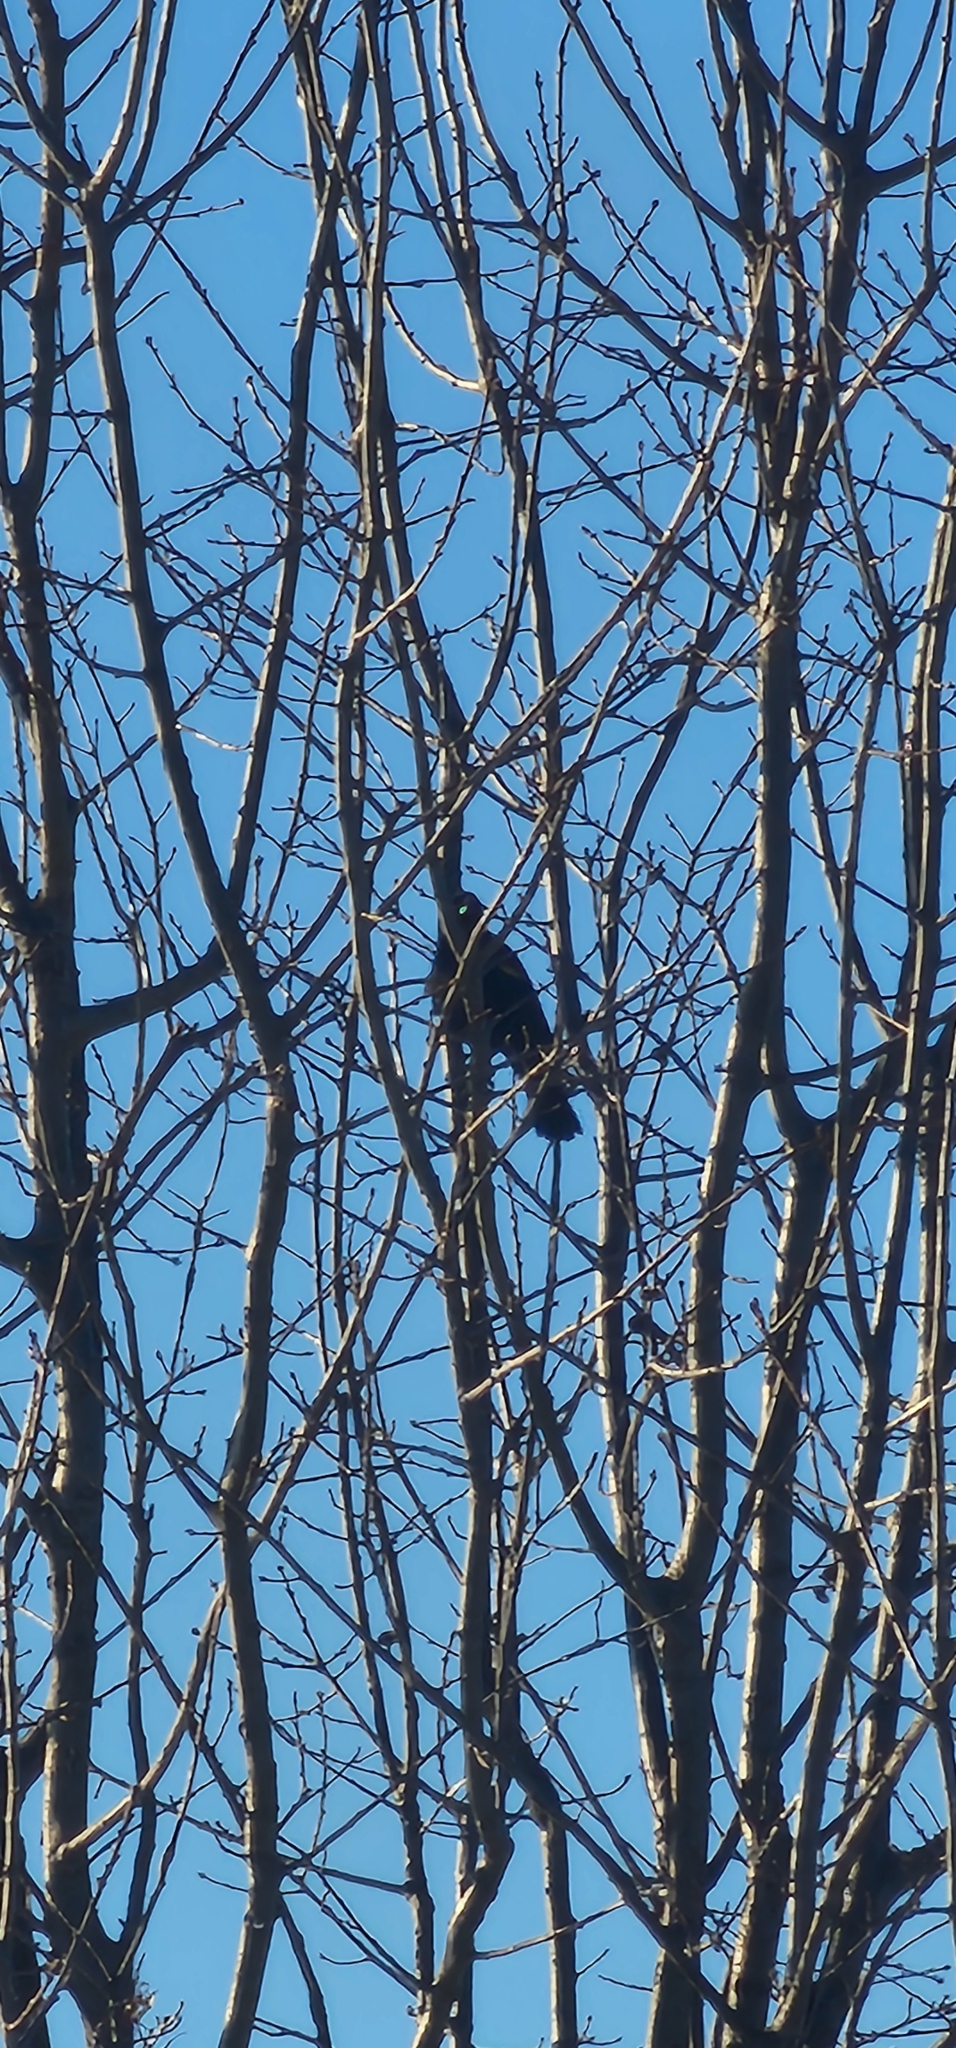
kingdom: Animalia
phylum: Chordata
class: Aves
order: Passeriformes
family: Icteridae
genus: Agelaius
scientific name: Agelaius phoeniceus
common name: Red-winged blackbird
